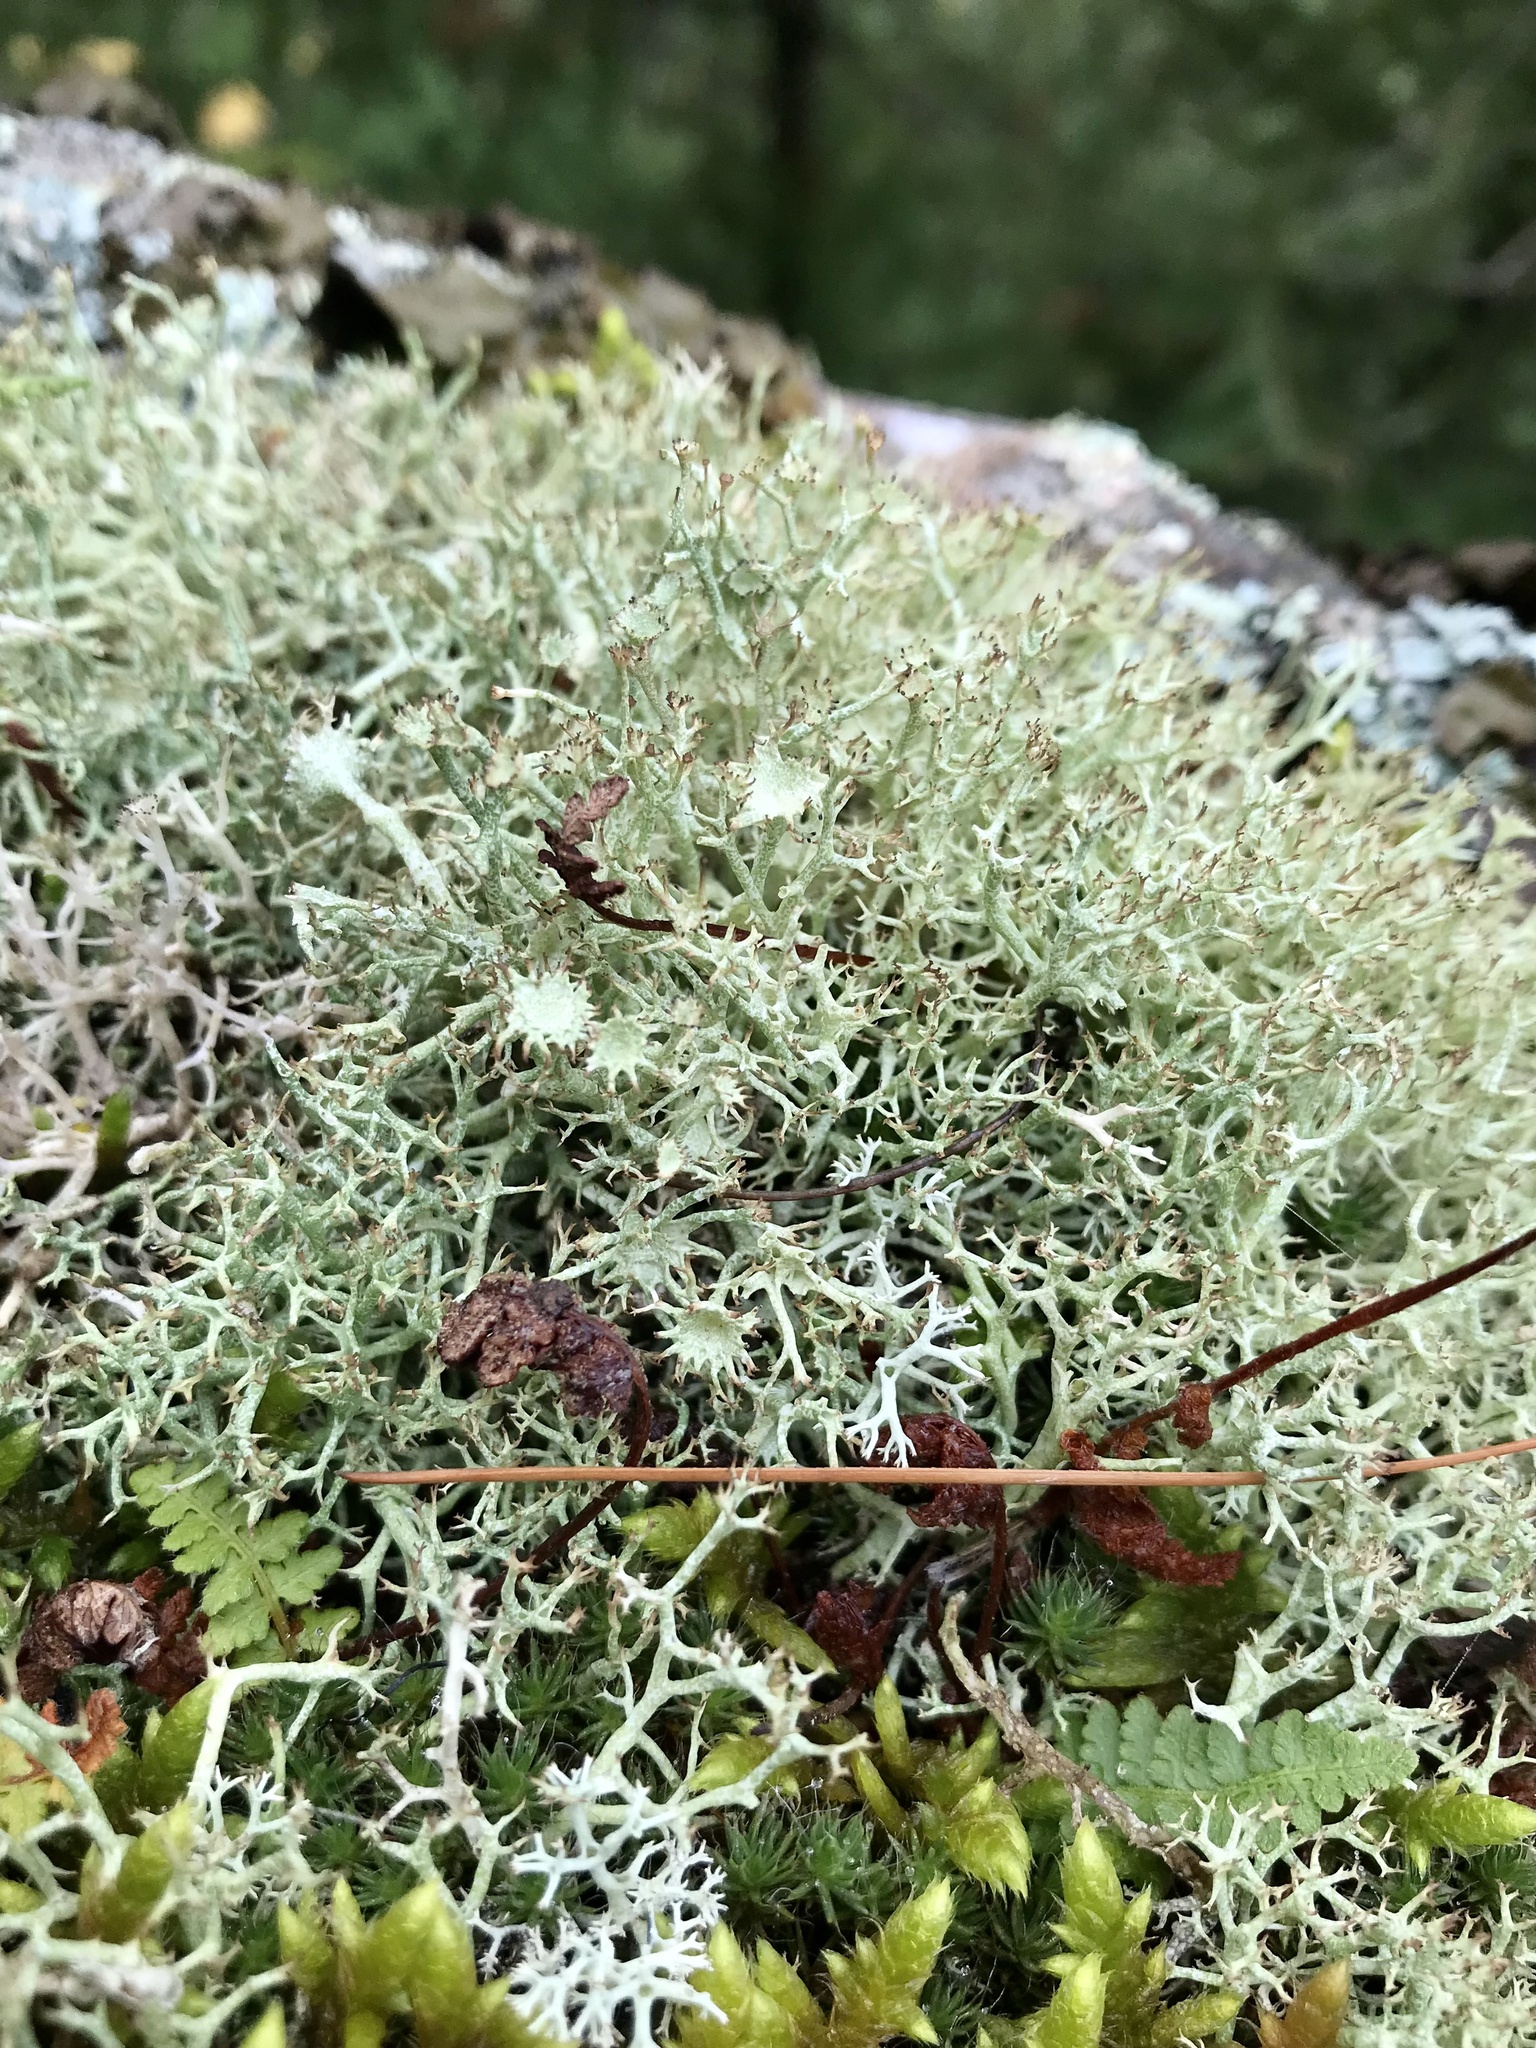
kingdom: Fungi
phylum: Ascomycota
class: Lecanoromycetes
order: Lecanorales
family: Cladoniaceae
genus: Cladonia
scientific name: Cladonia amaurocraea
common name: Quill lichen
